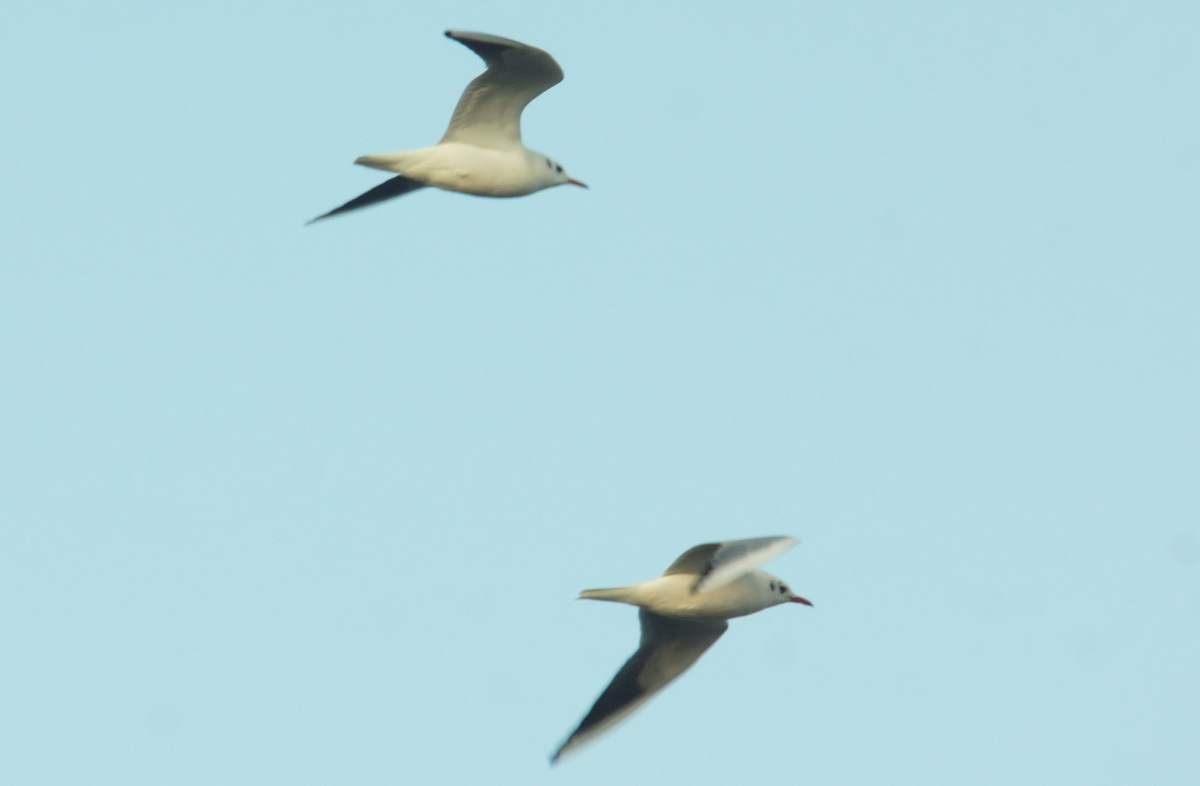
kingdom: Animalia
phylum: Chordata
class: Aves
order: Charadriiformes
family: Laridae
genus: Chroicocephalus
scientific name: Chroicocephalus ridibundus
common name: Black-headed gull
